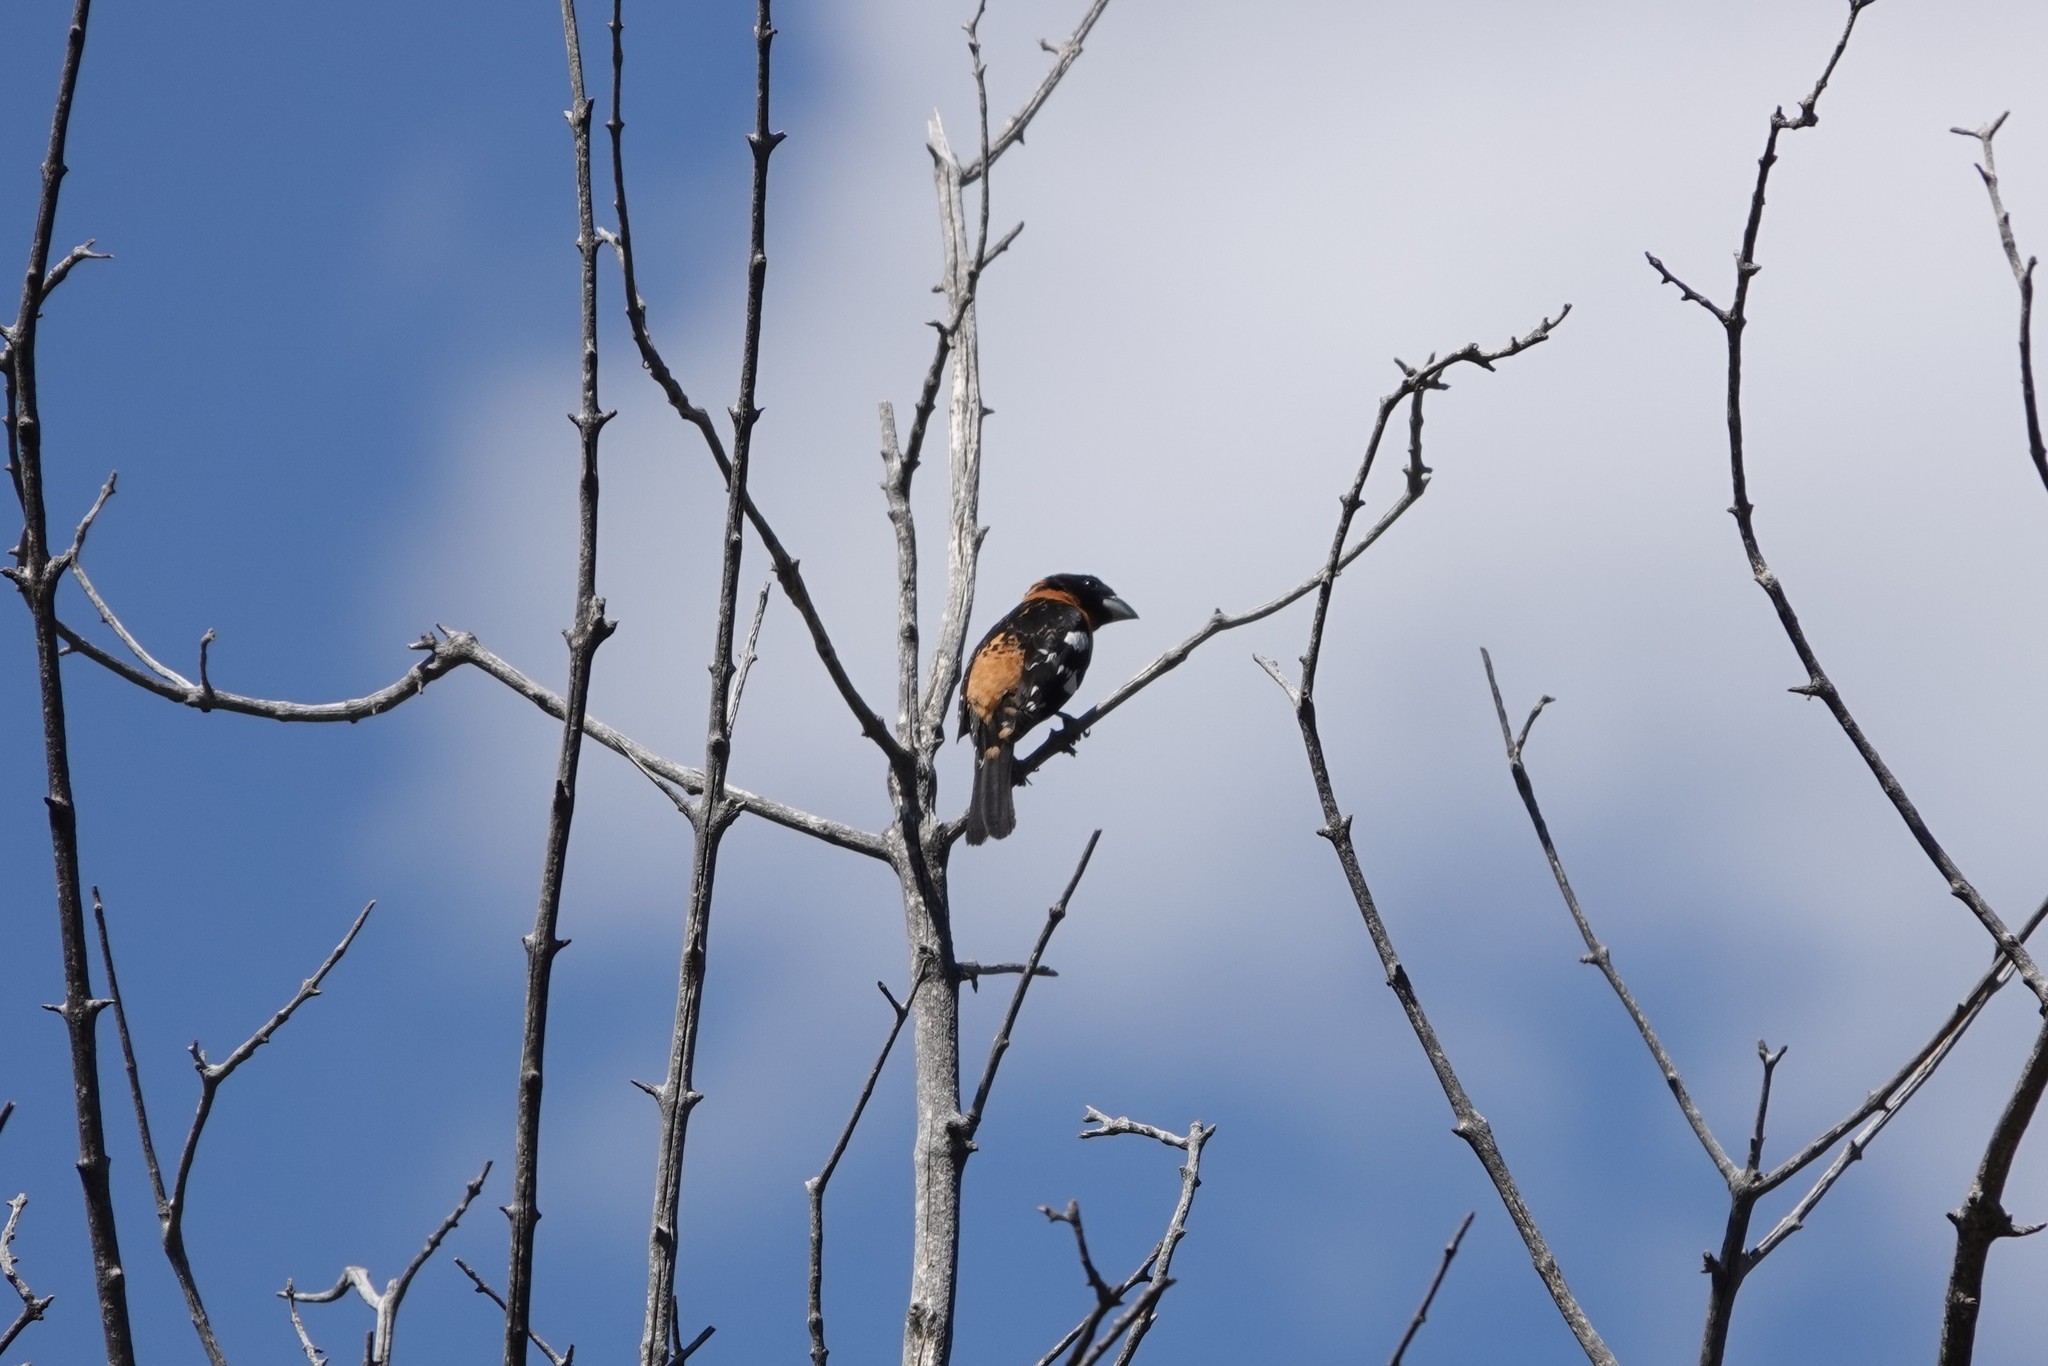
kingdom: Animalia
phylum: Chordata
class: Aves
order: Passeriformes
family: Cardinalidae
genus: Pheucticus
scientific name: Pheucticus melanocephalus
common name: Black-headed grosbeak
